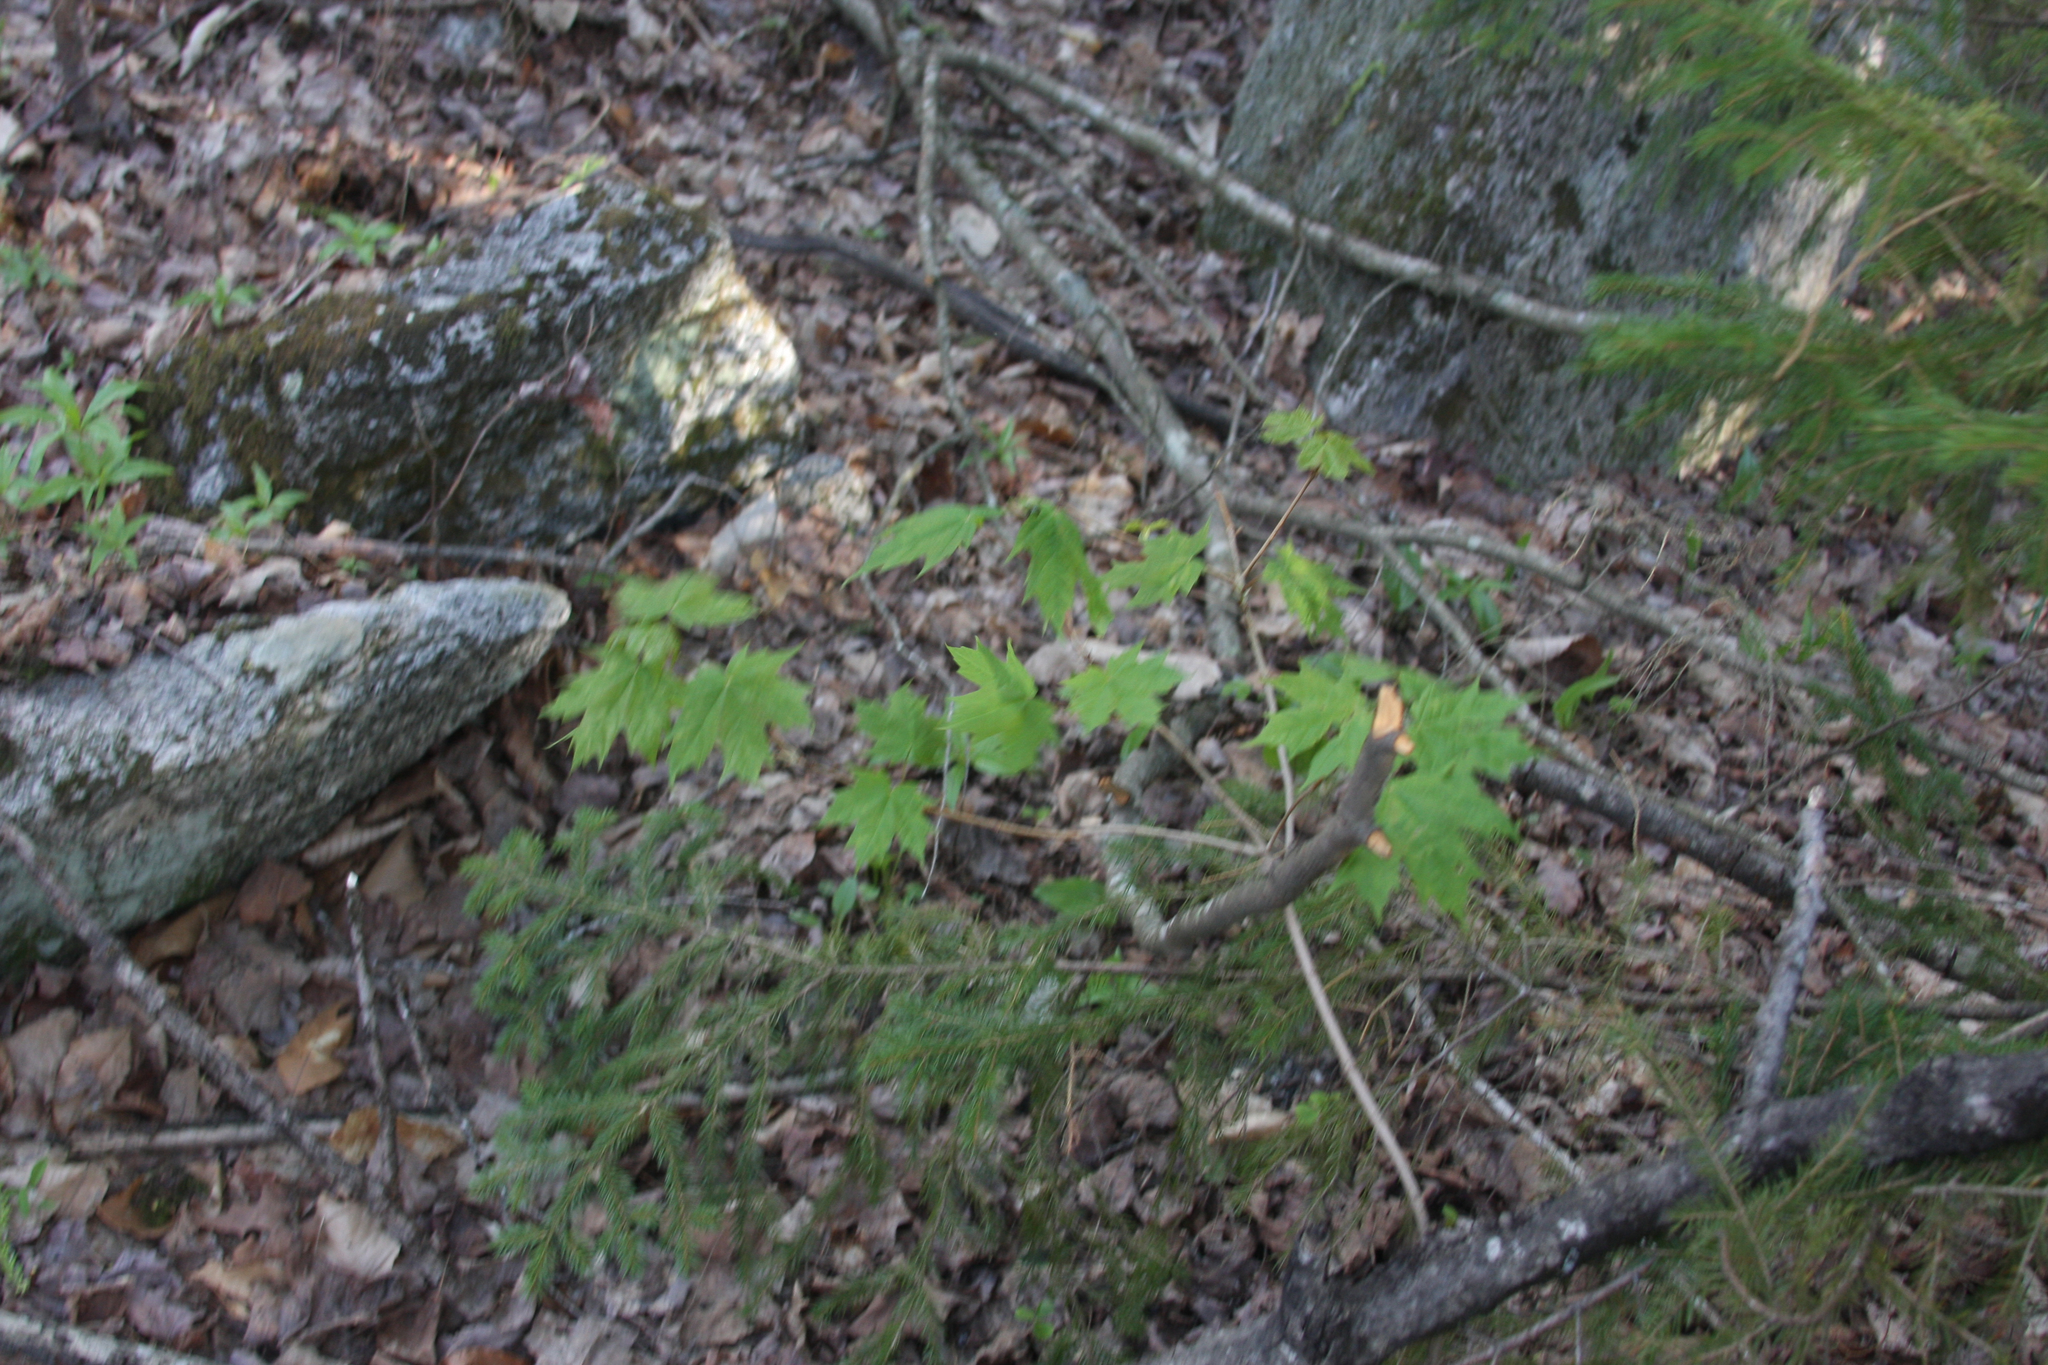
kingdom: Plantae
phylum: Tracheophyta
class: Magnoliopsida
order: Sapindales
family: Sapindaceae
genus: Acer
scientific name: Acer saccharum
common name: Sugar maple
